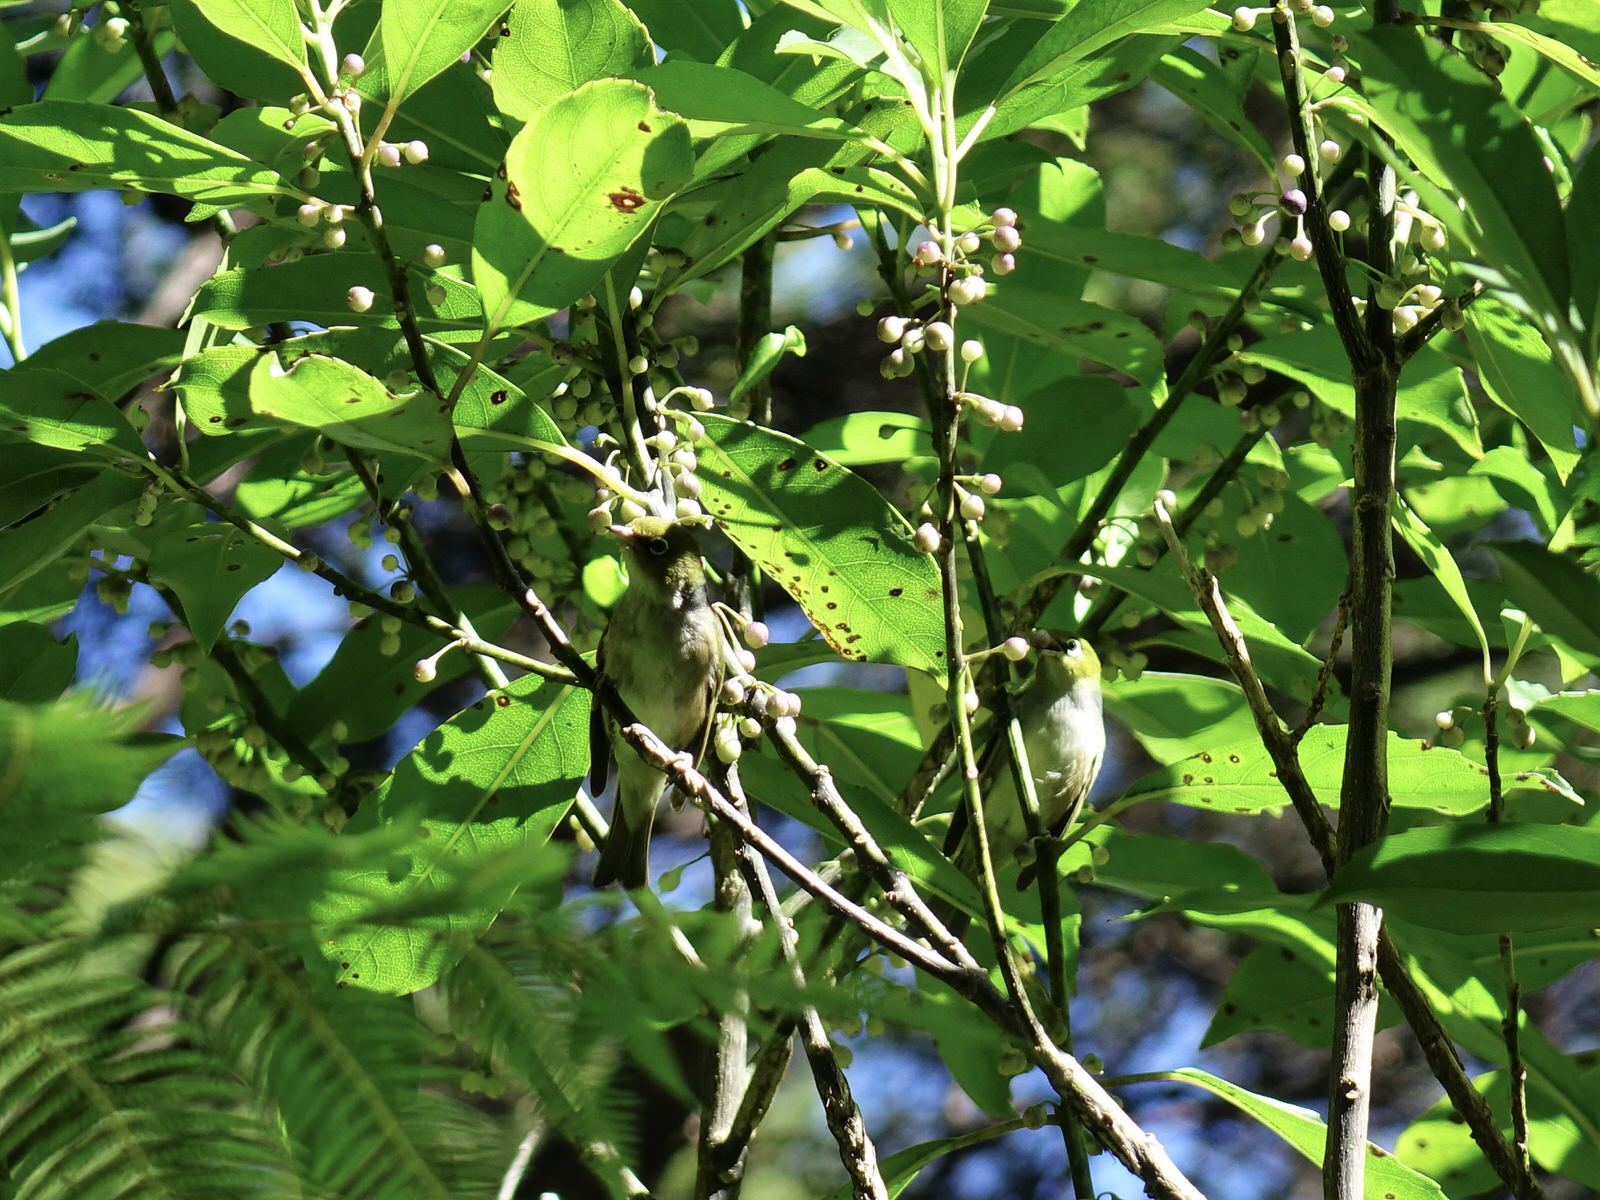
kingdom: Animalia
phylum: Chordata
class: Aves
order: Passeriformes
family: Zosteropidae
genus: Zosterops
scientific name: Zosterops lateralis
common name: Silvereye
